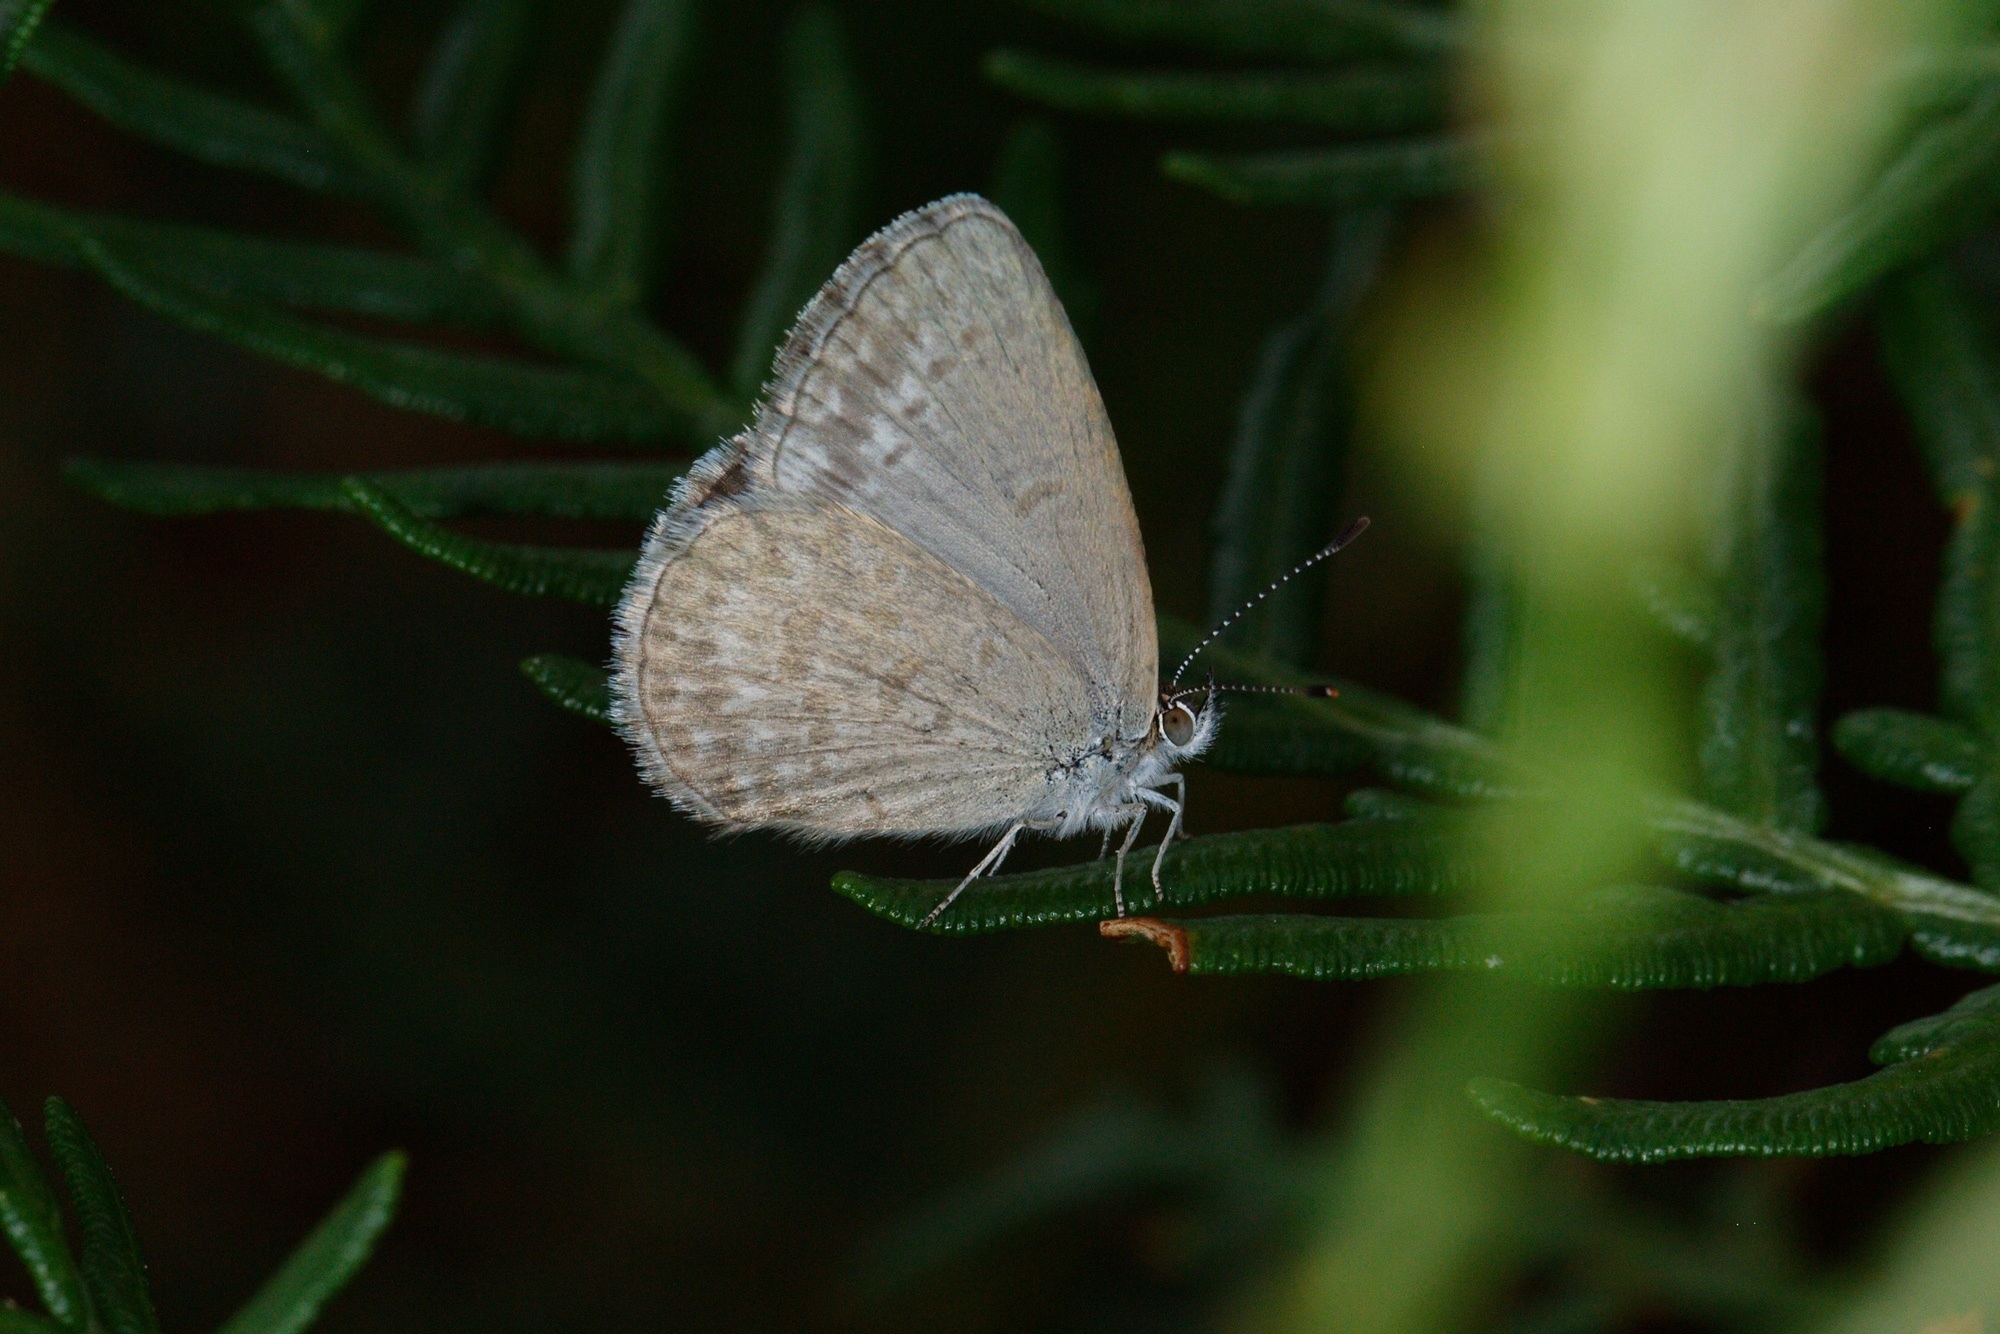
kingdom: Animalia
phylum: Arthropoda
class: Insecta
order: Lepidoptera
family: Lycaenidae
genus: Zizina
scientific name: Zizina labradus
